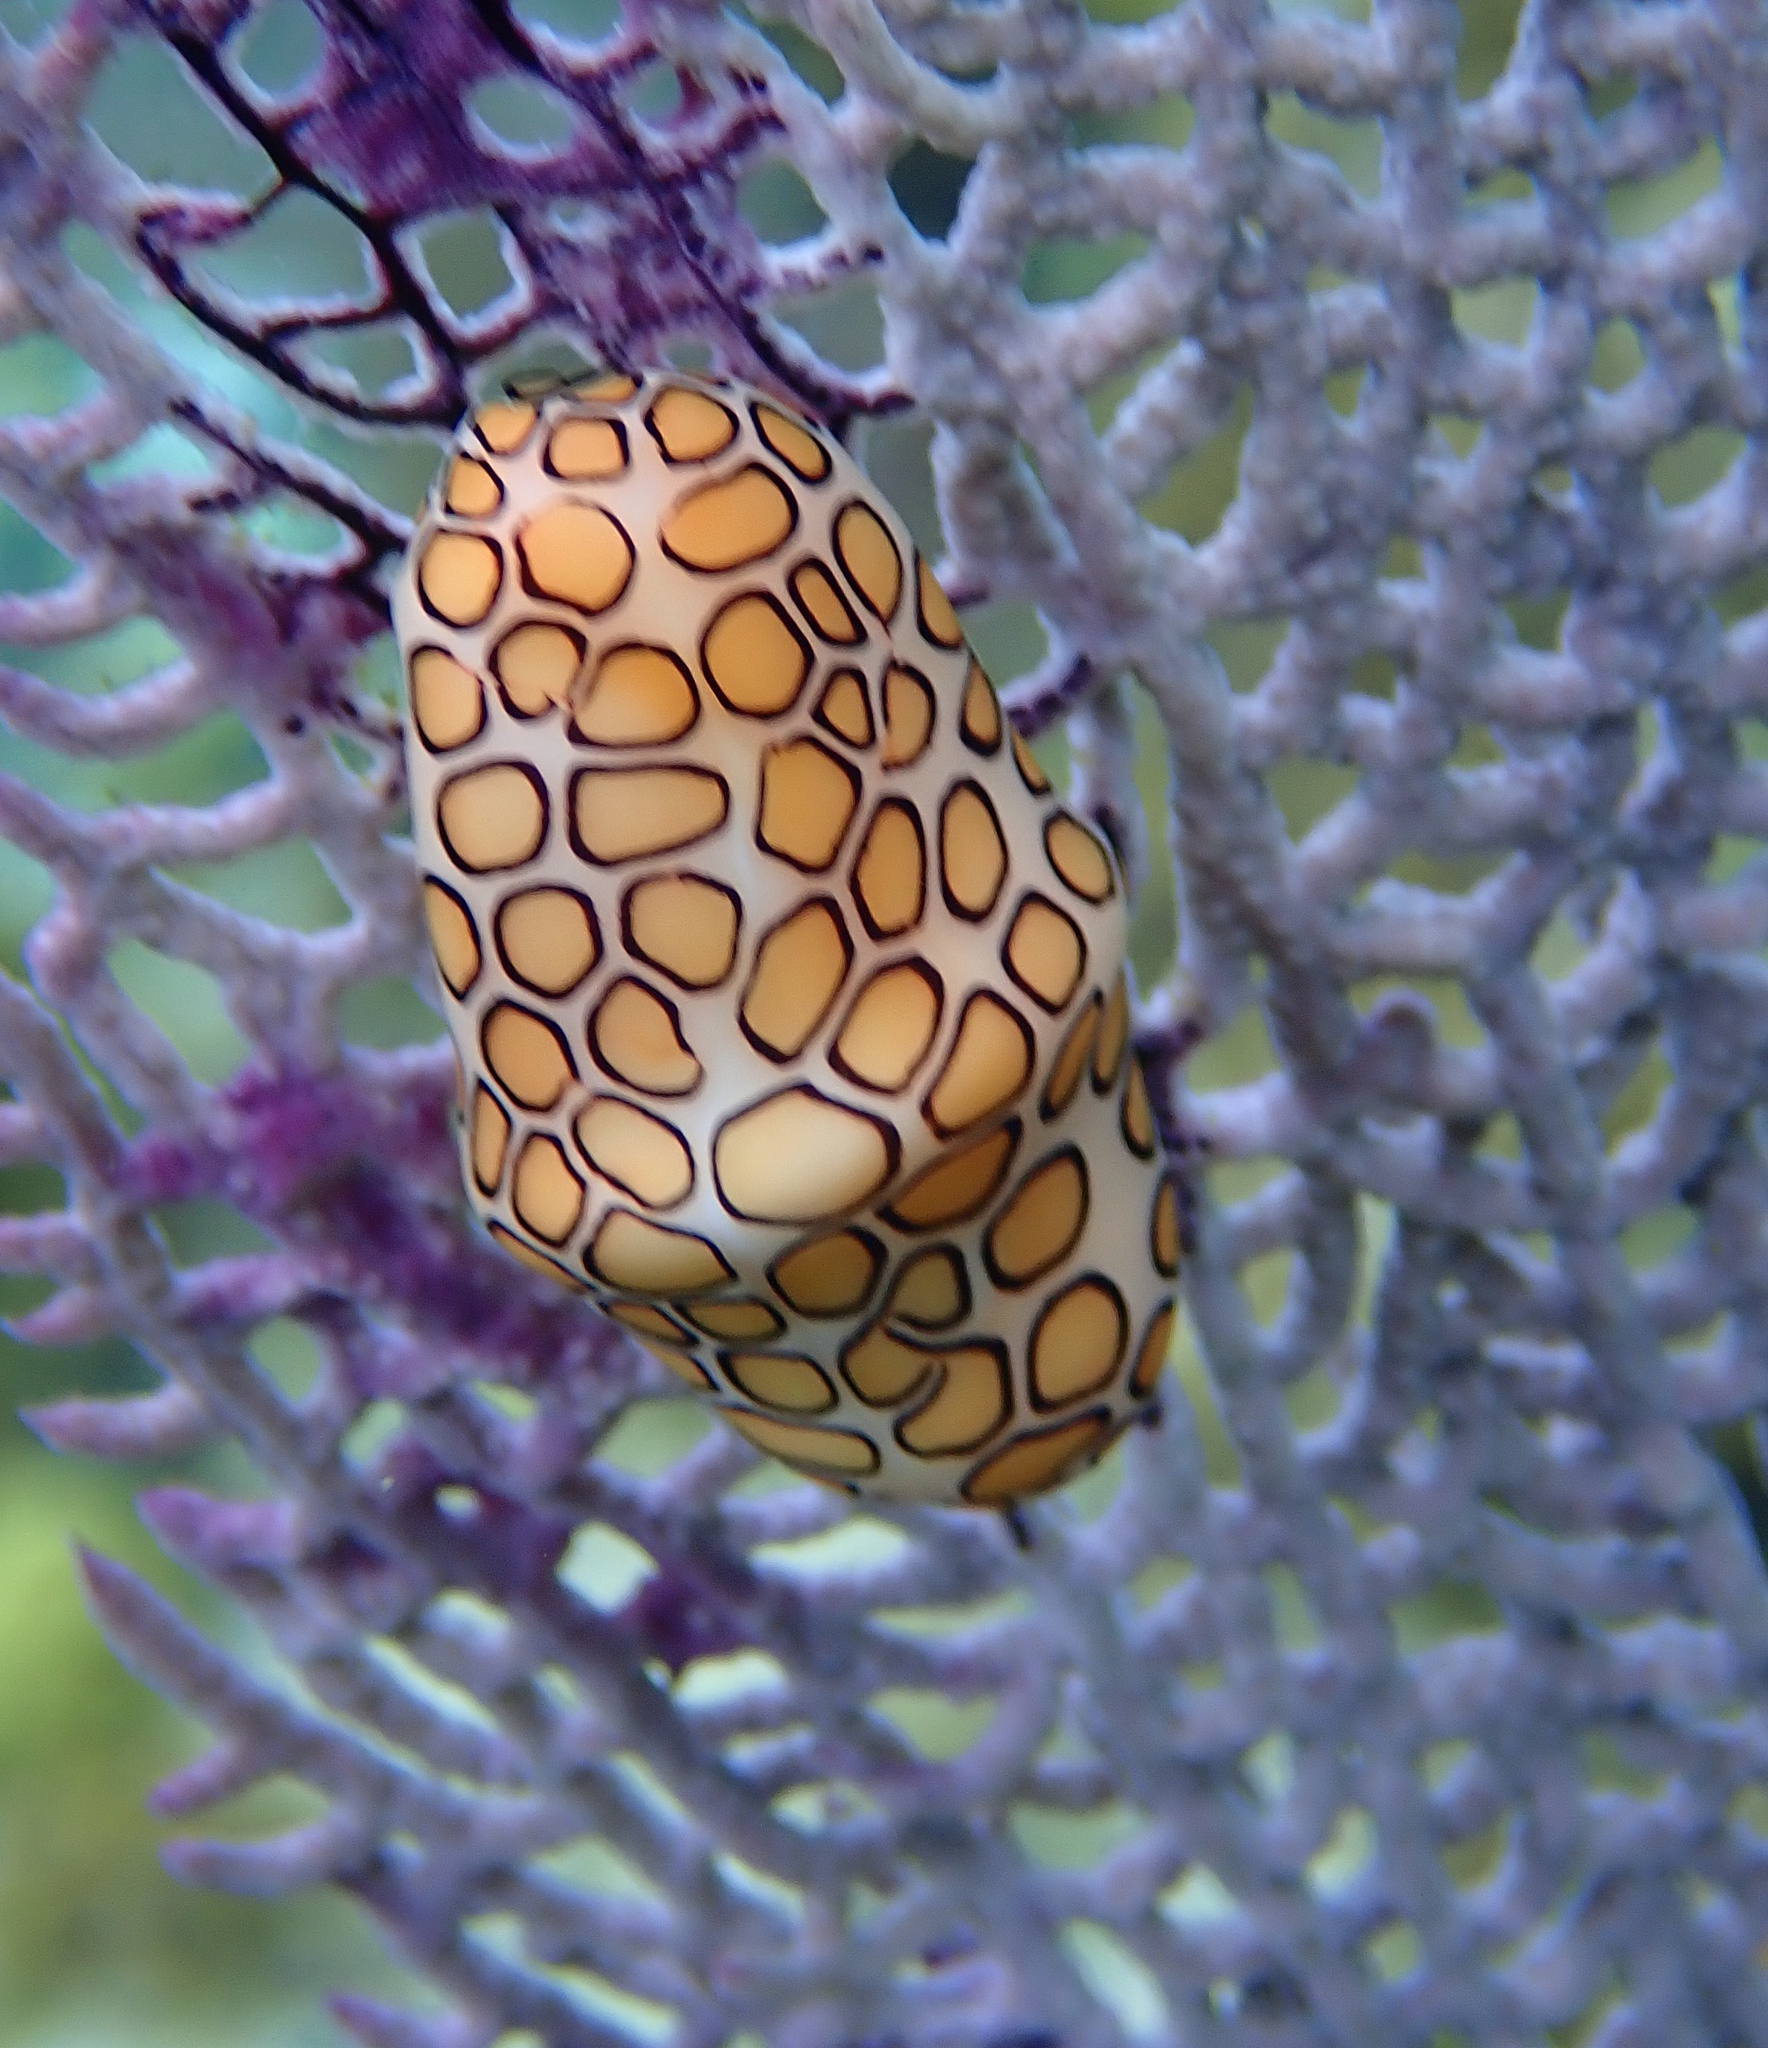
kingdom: Animalia
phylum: Mollusca
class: Gastropoda
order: Littorinimorpha
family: Ovulidae
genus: Cyphoma
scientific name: Cyphoma gibbosum
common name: Flamingo tongue
